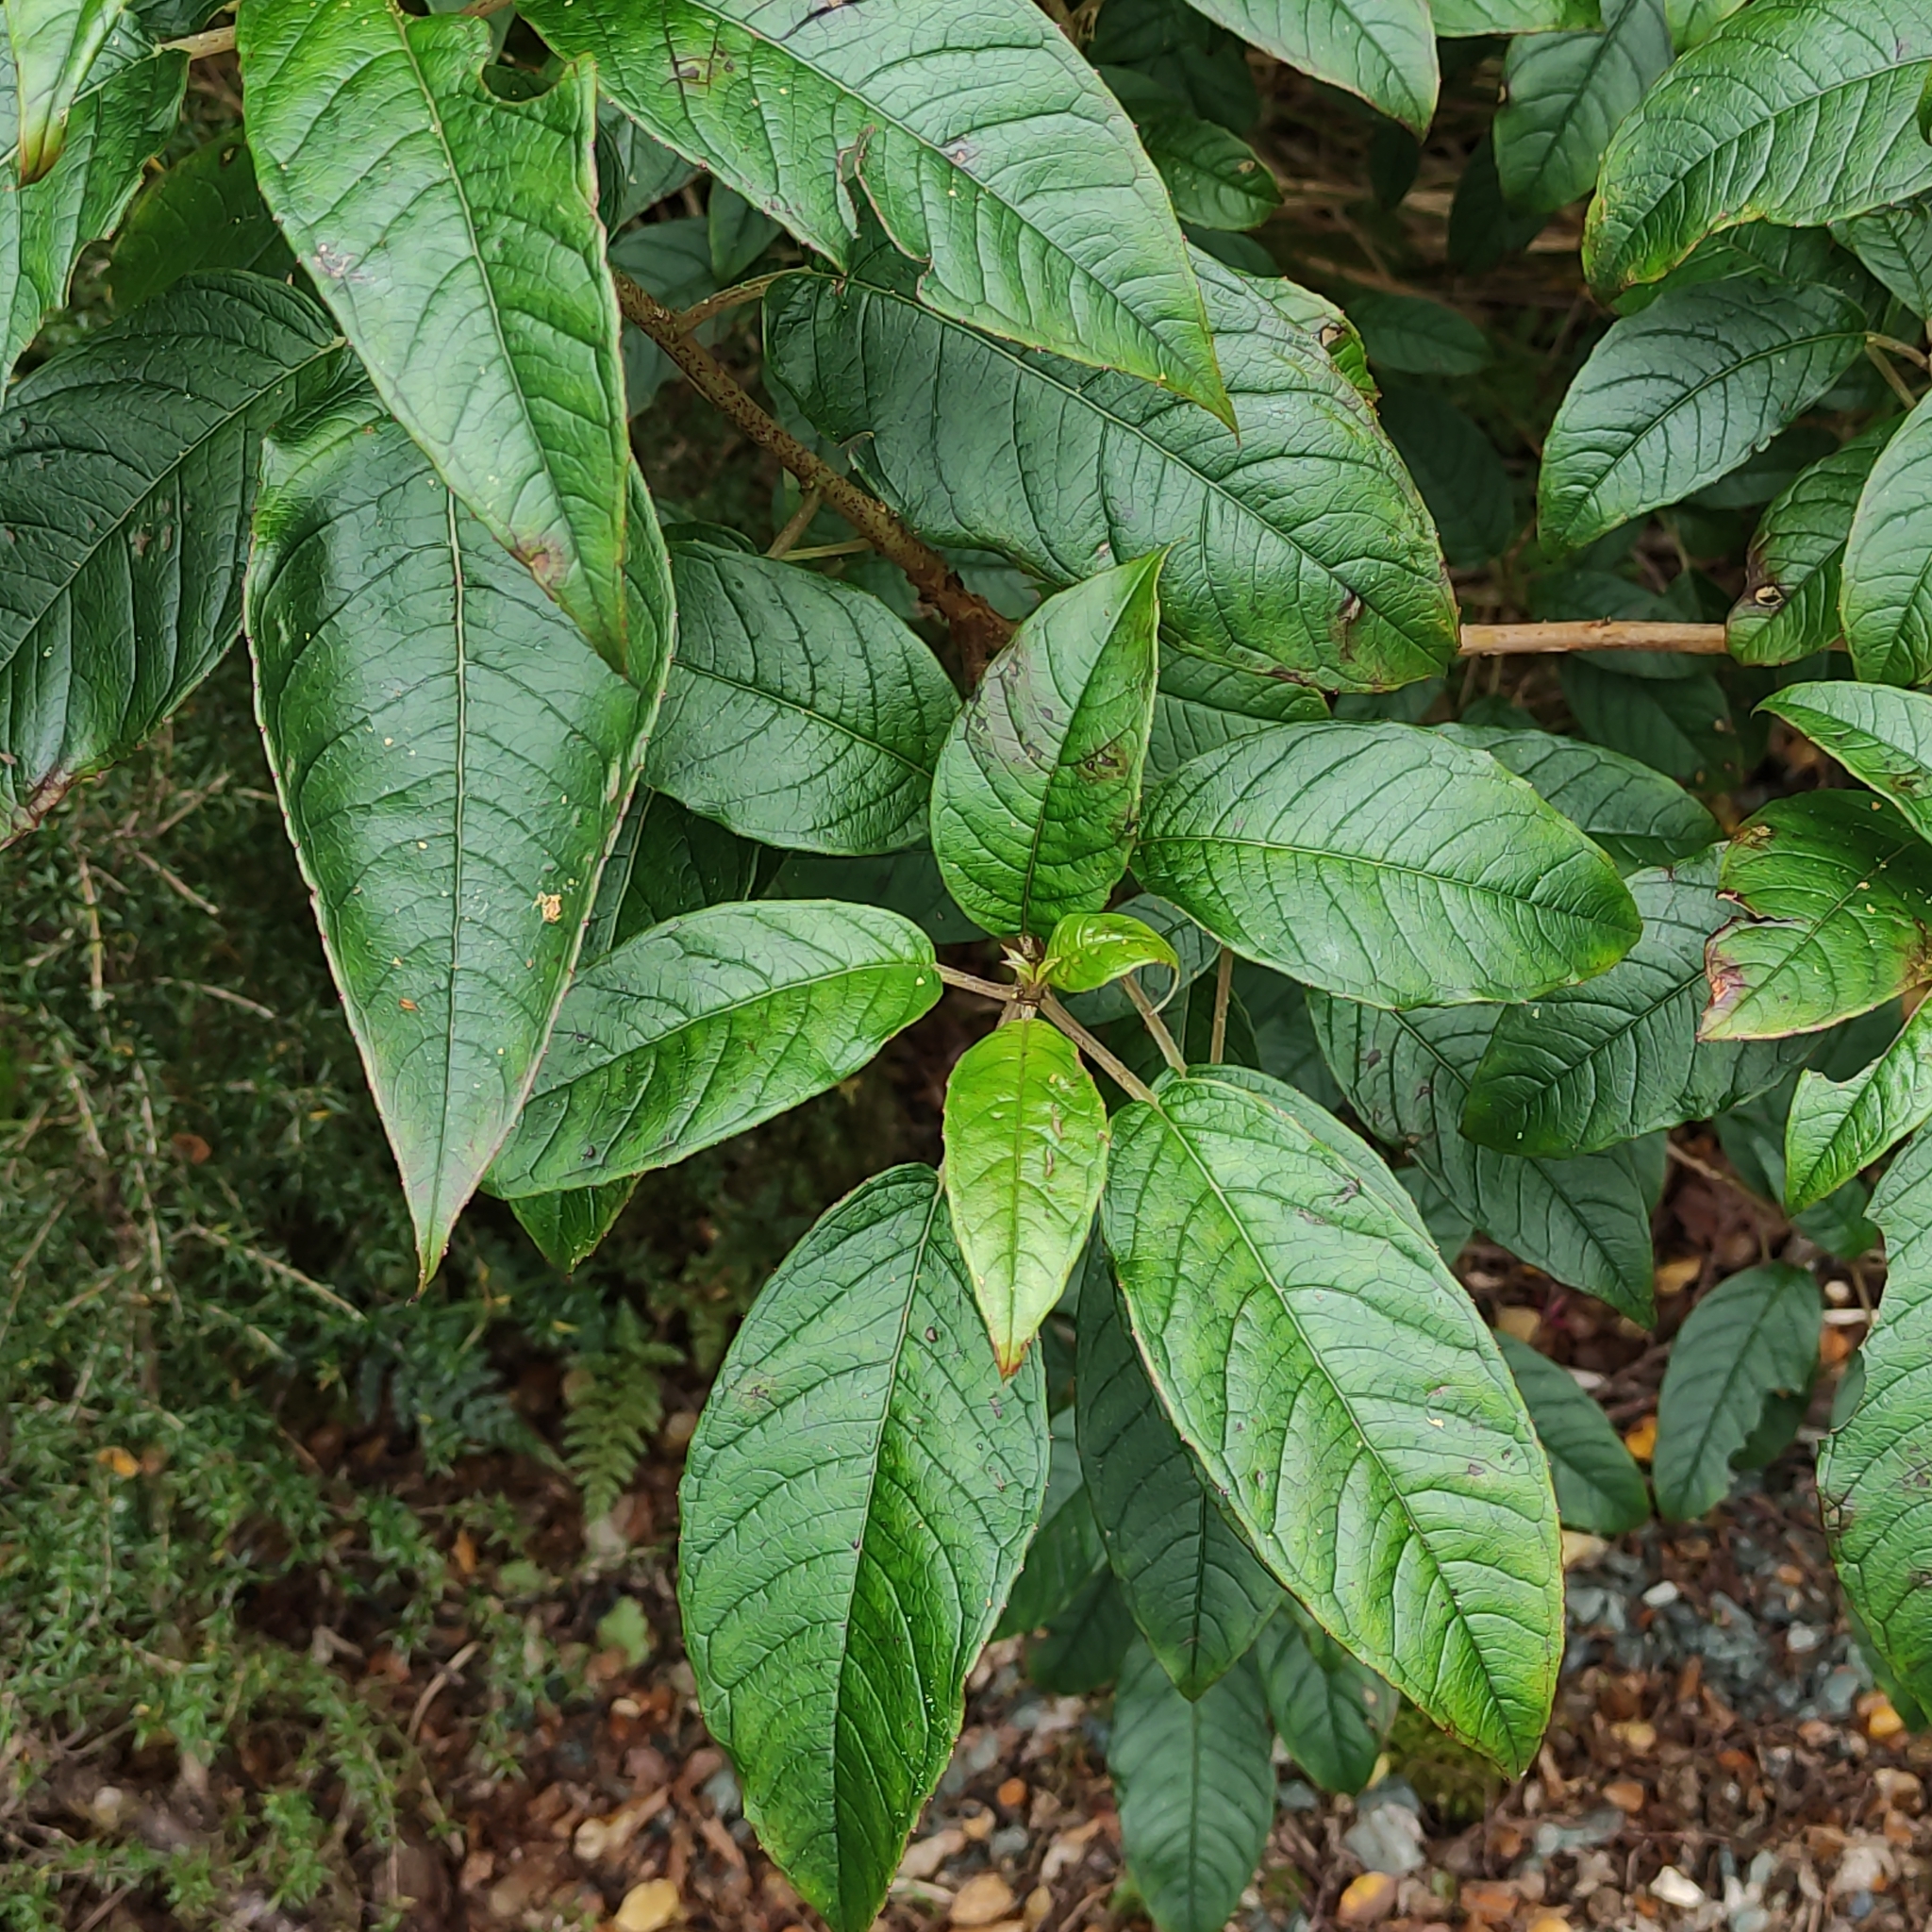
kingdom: Plantae
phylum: Tracheophyta
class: Magnoliopsida
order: Myrtales
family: Onagraceae
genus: Fuchsia
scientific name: Fuchsia excorticata
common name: Tree fuchsia
